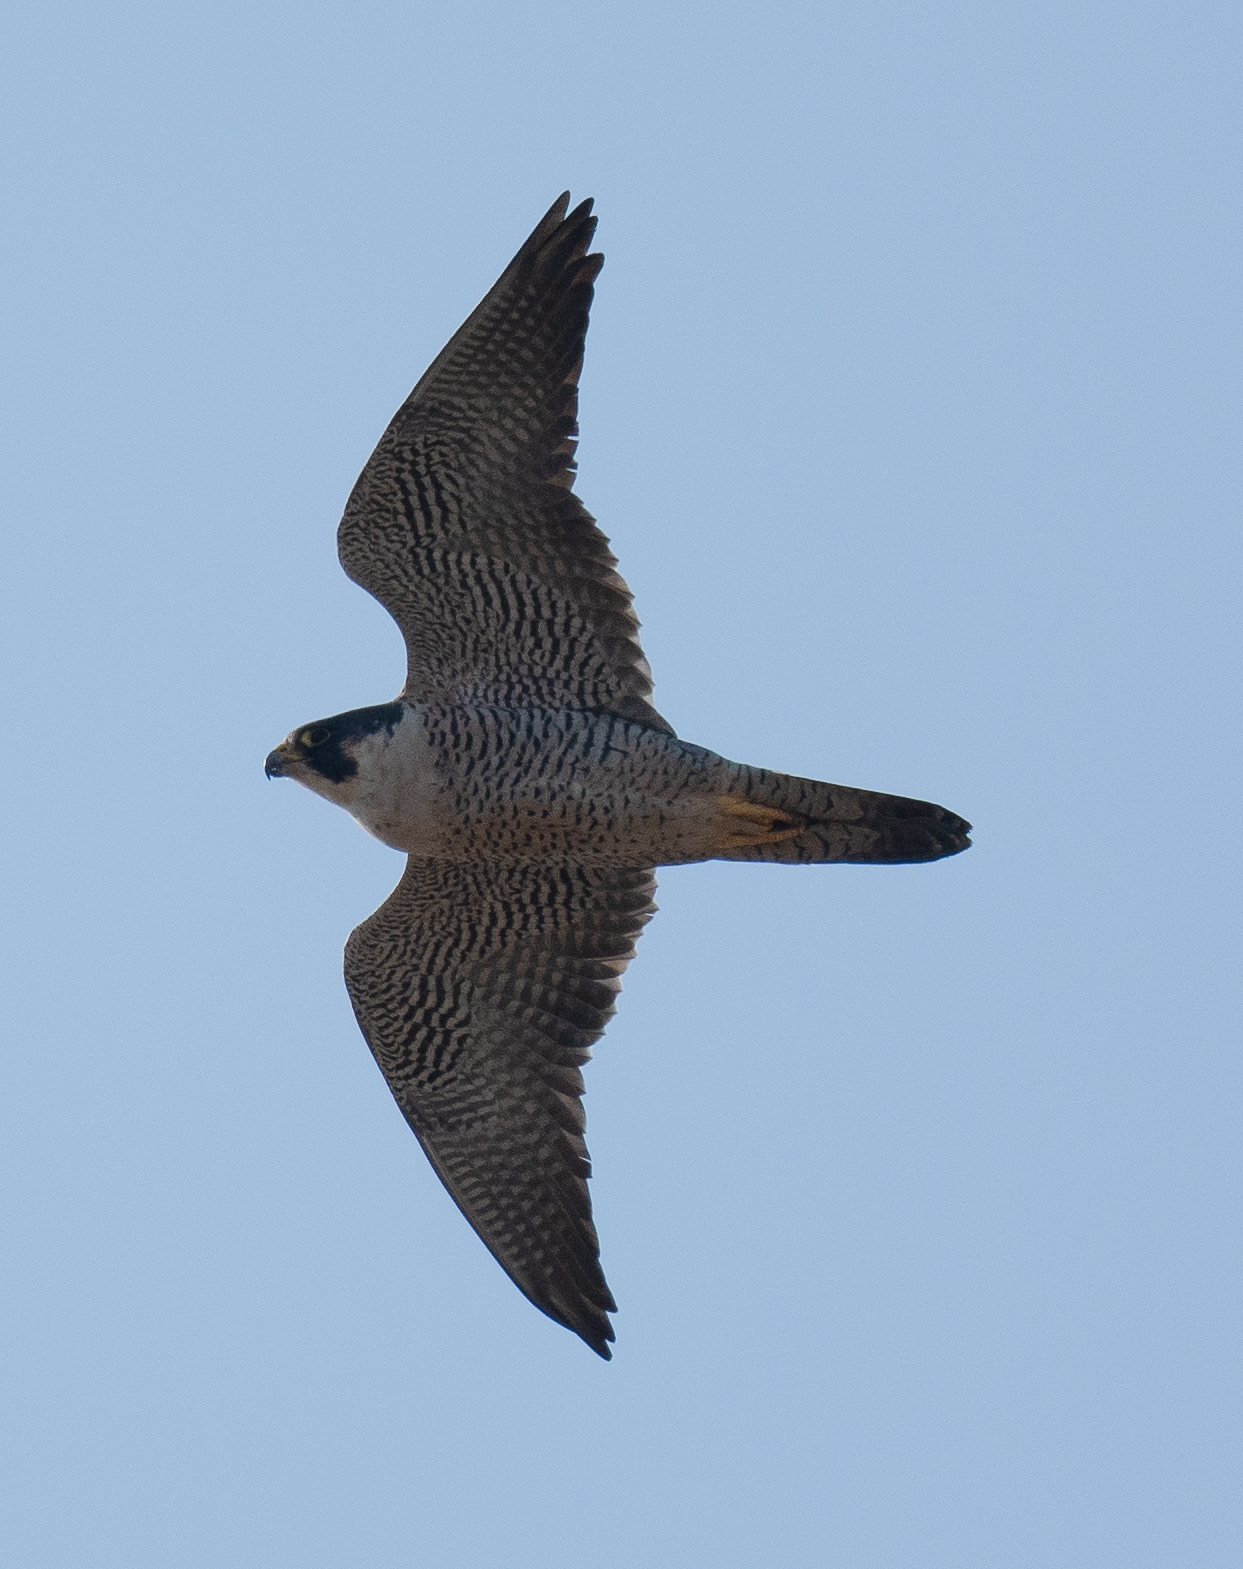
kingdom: Animalia
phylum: Chordata
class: Aves
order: Falconiformes
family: Falconidae
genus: Falco
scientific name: Falco peregrinus
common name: Peregrine falcon
